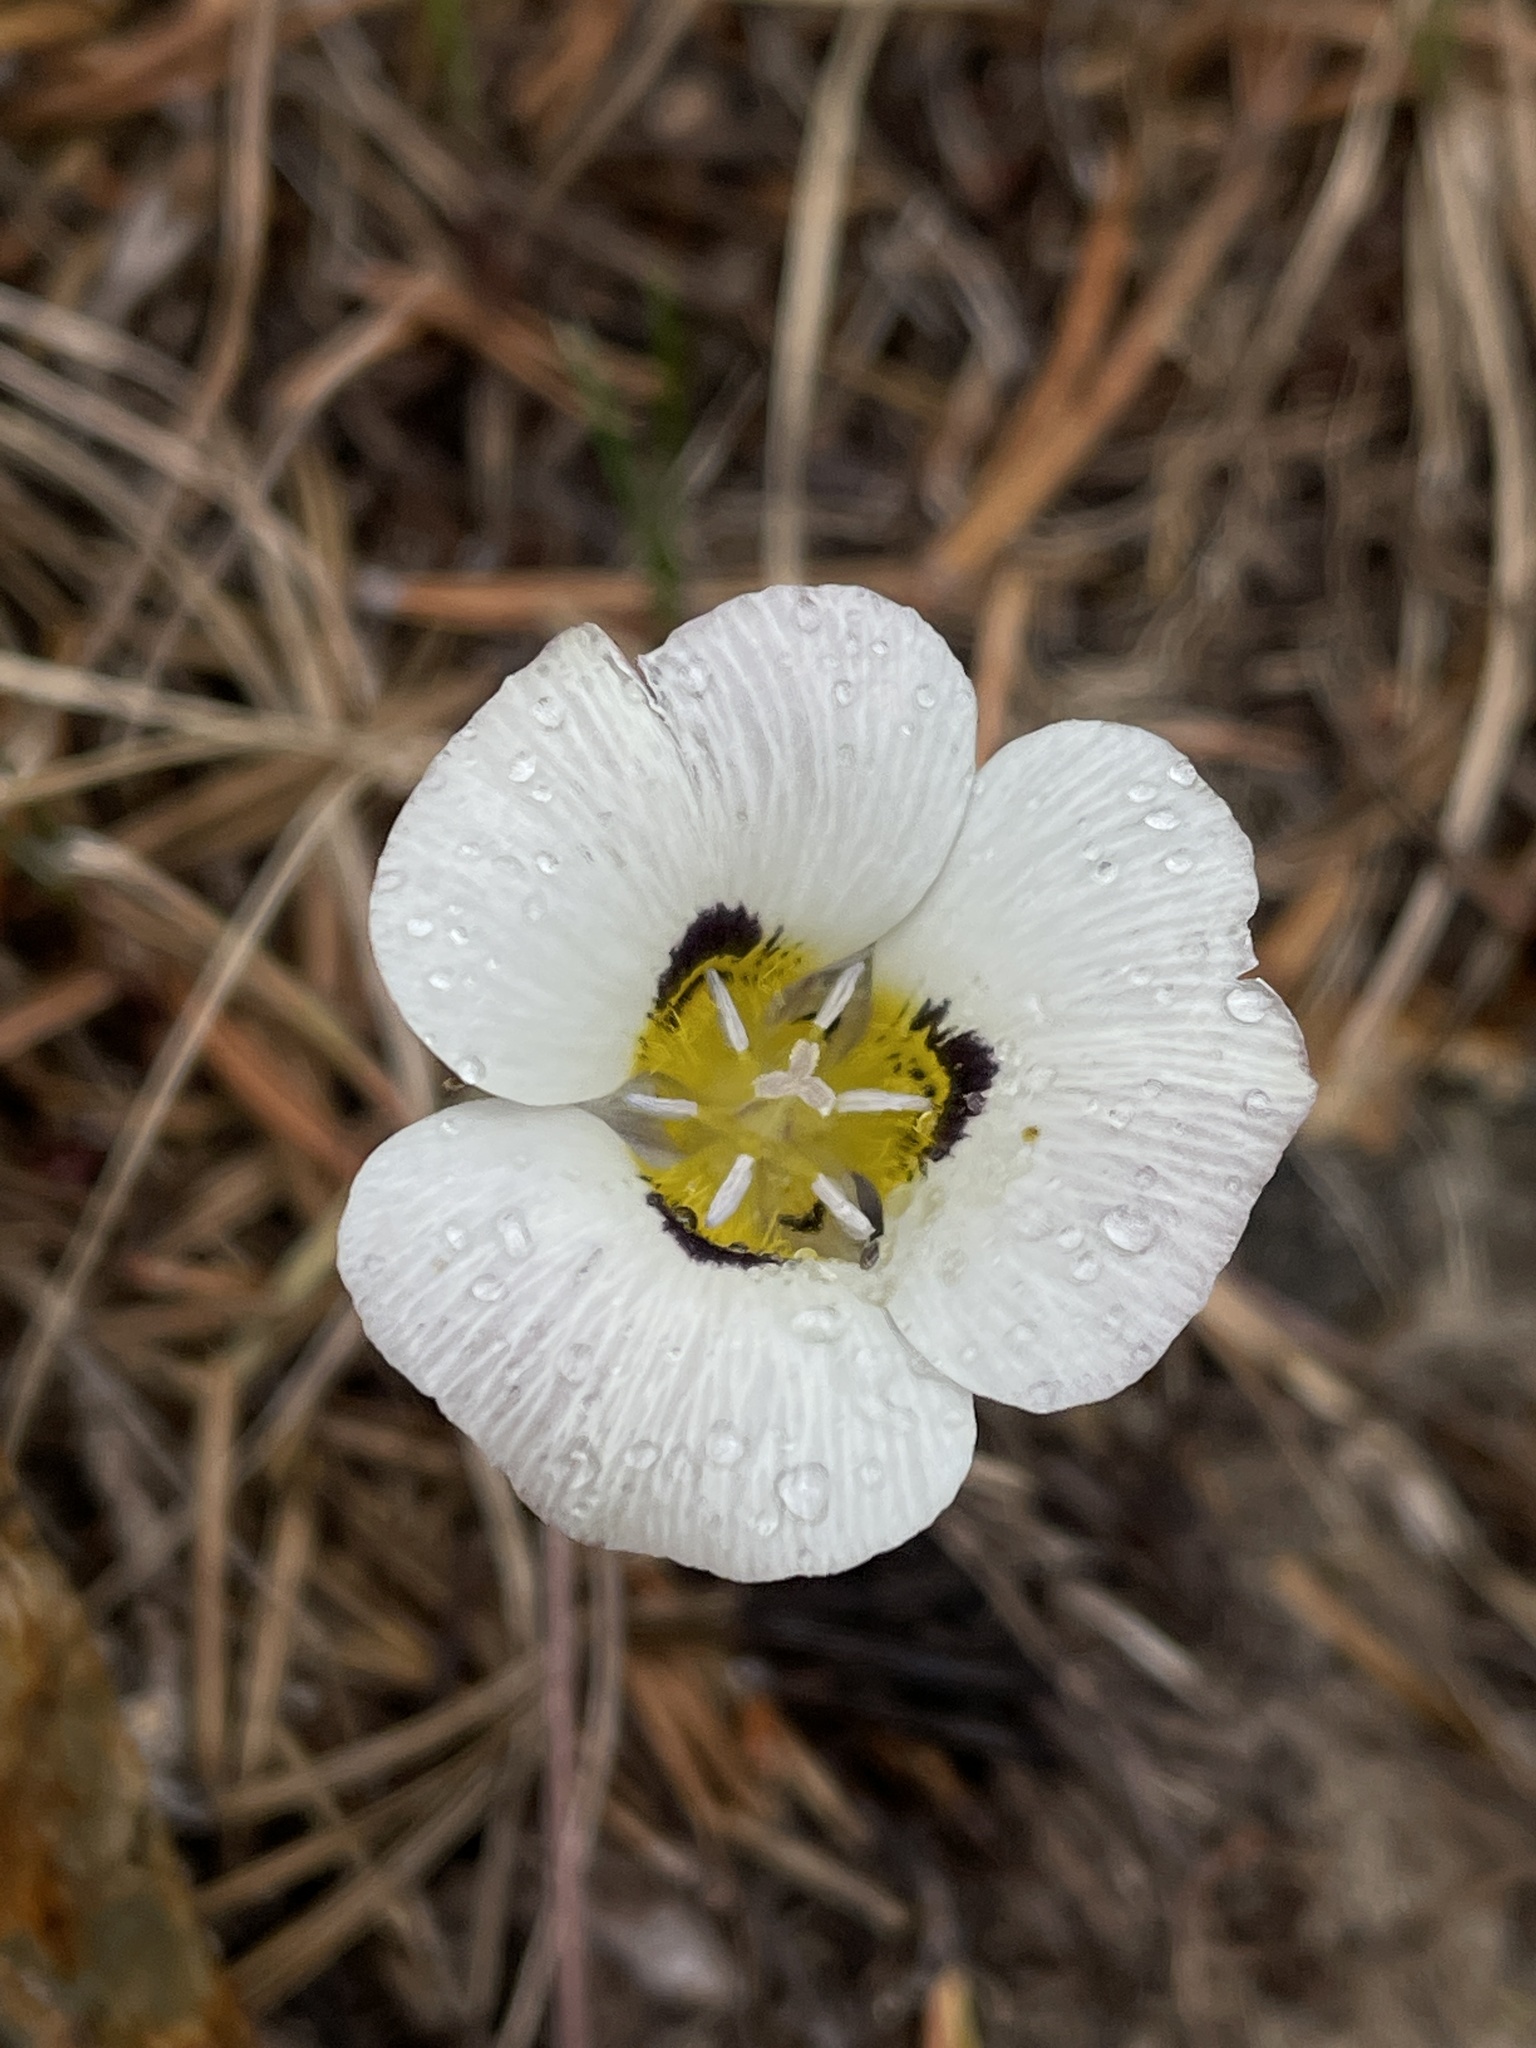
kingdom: Plantae
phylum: Tracheophyta
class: Liliopsida
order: Liliales
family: Liliaceae
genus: Calochortus
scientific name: Calochortus leichtlinii
